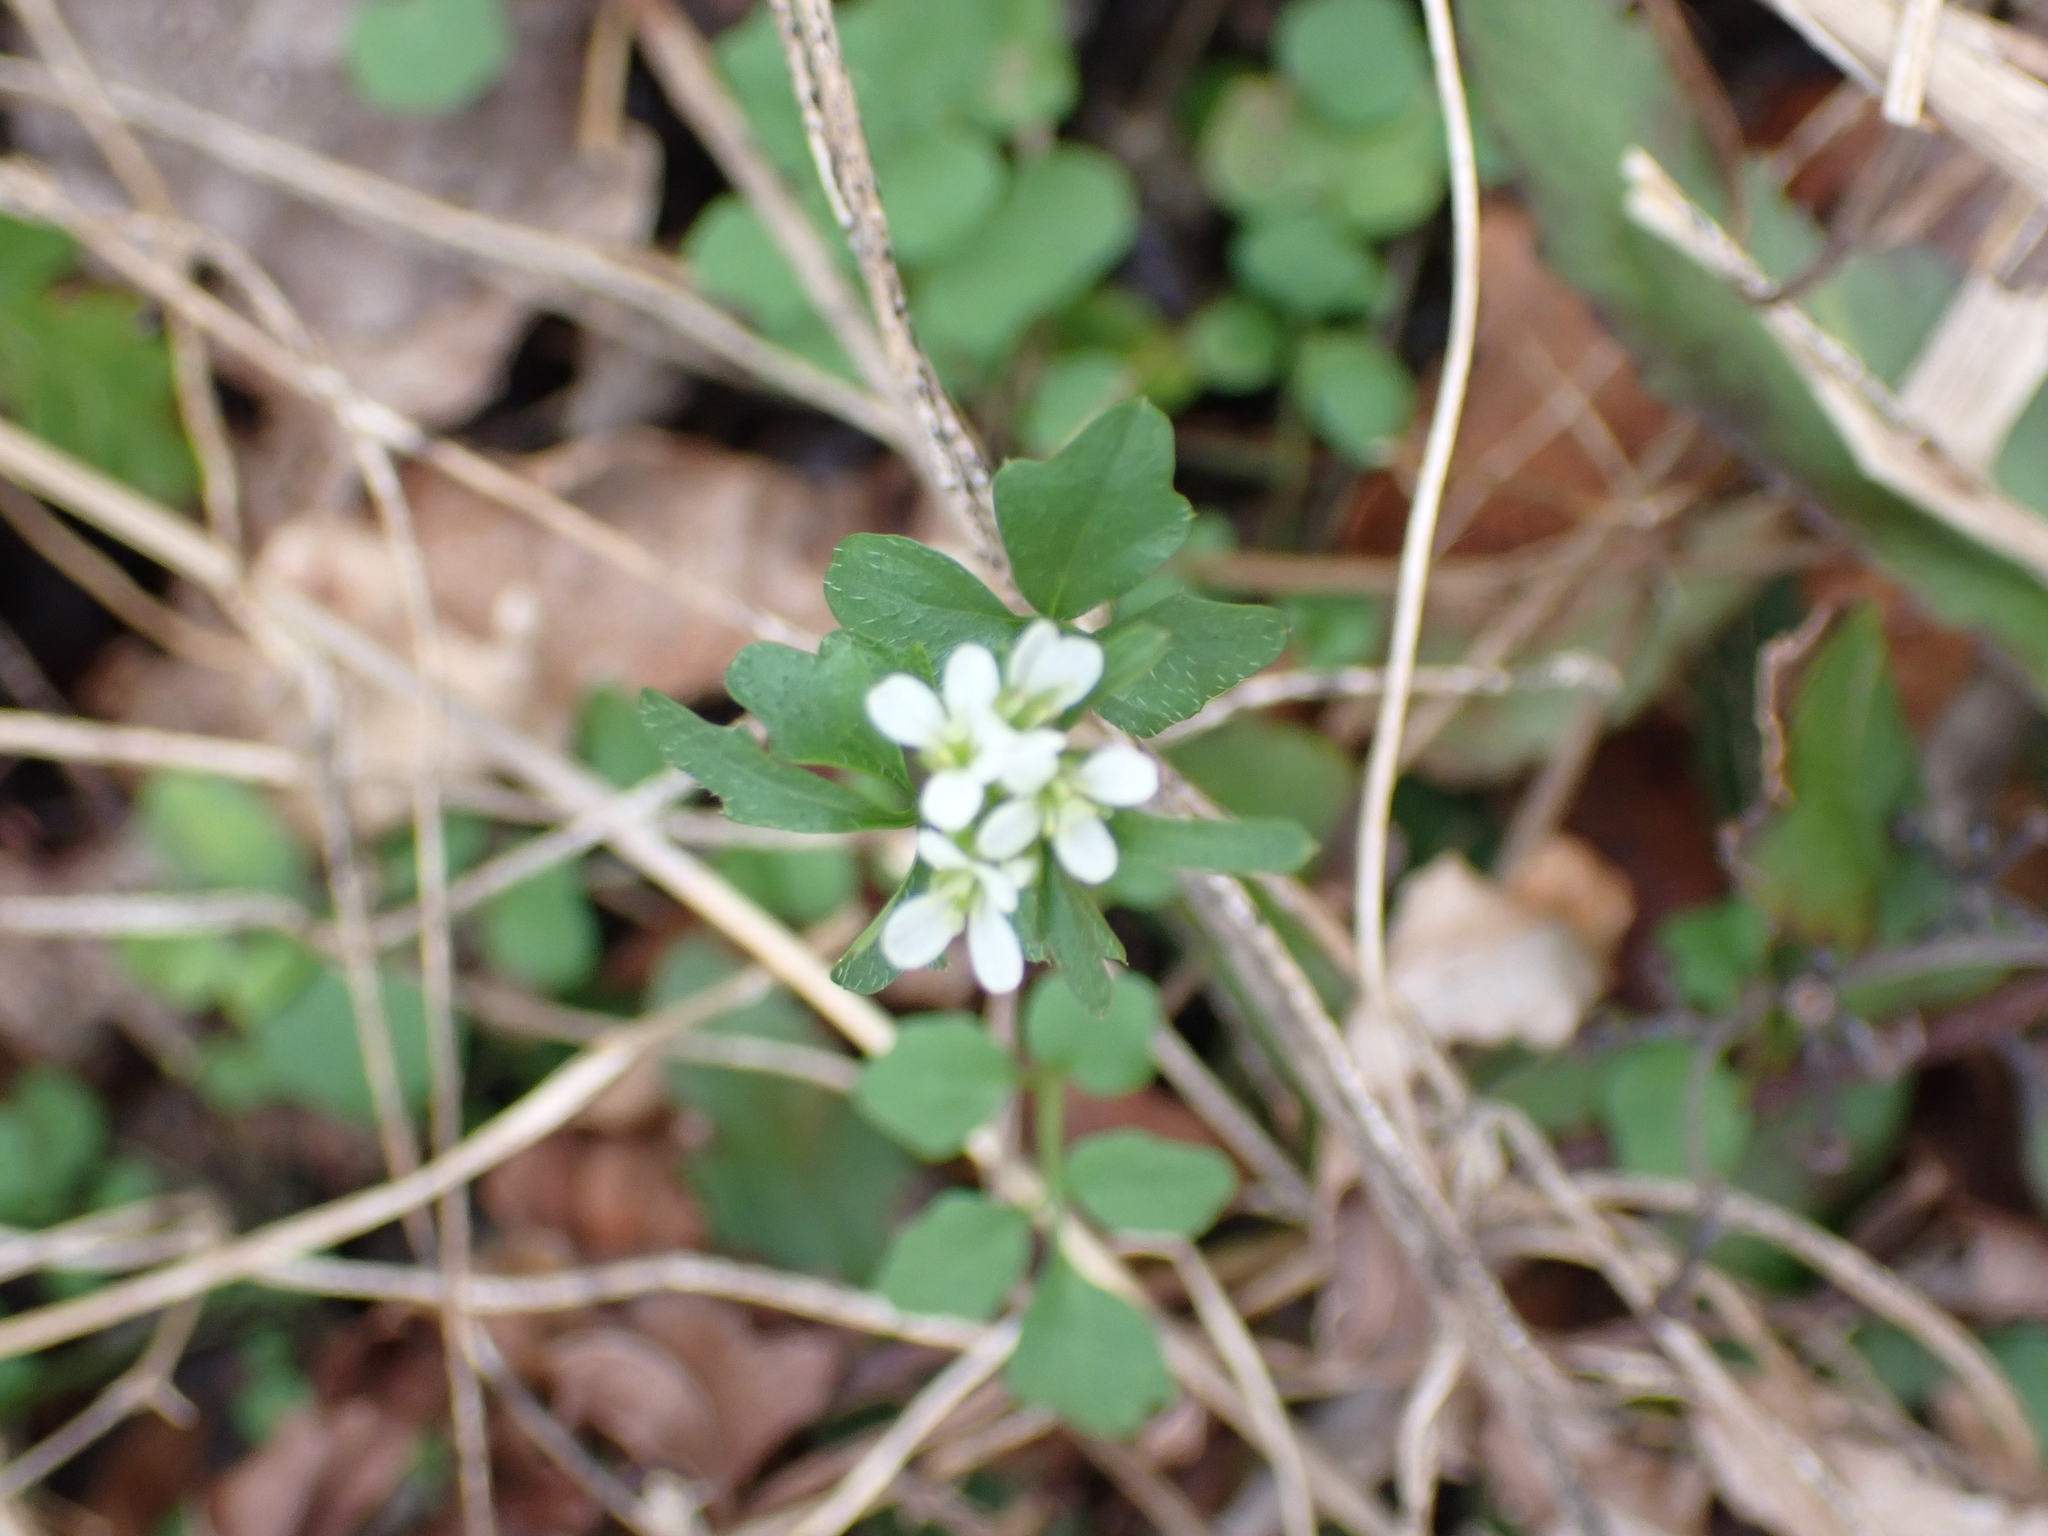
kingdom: Plantae
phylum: Tracheophyta
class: Magnoliopsida
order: Brassicales
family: Brassicaceae
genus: Cardamine
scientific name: Cardamine hirsuta
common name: Hairy bittercress
